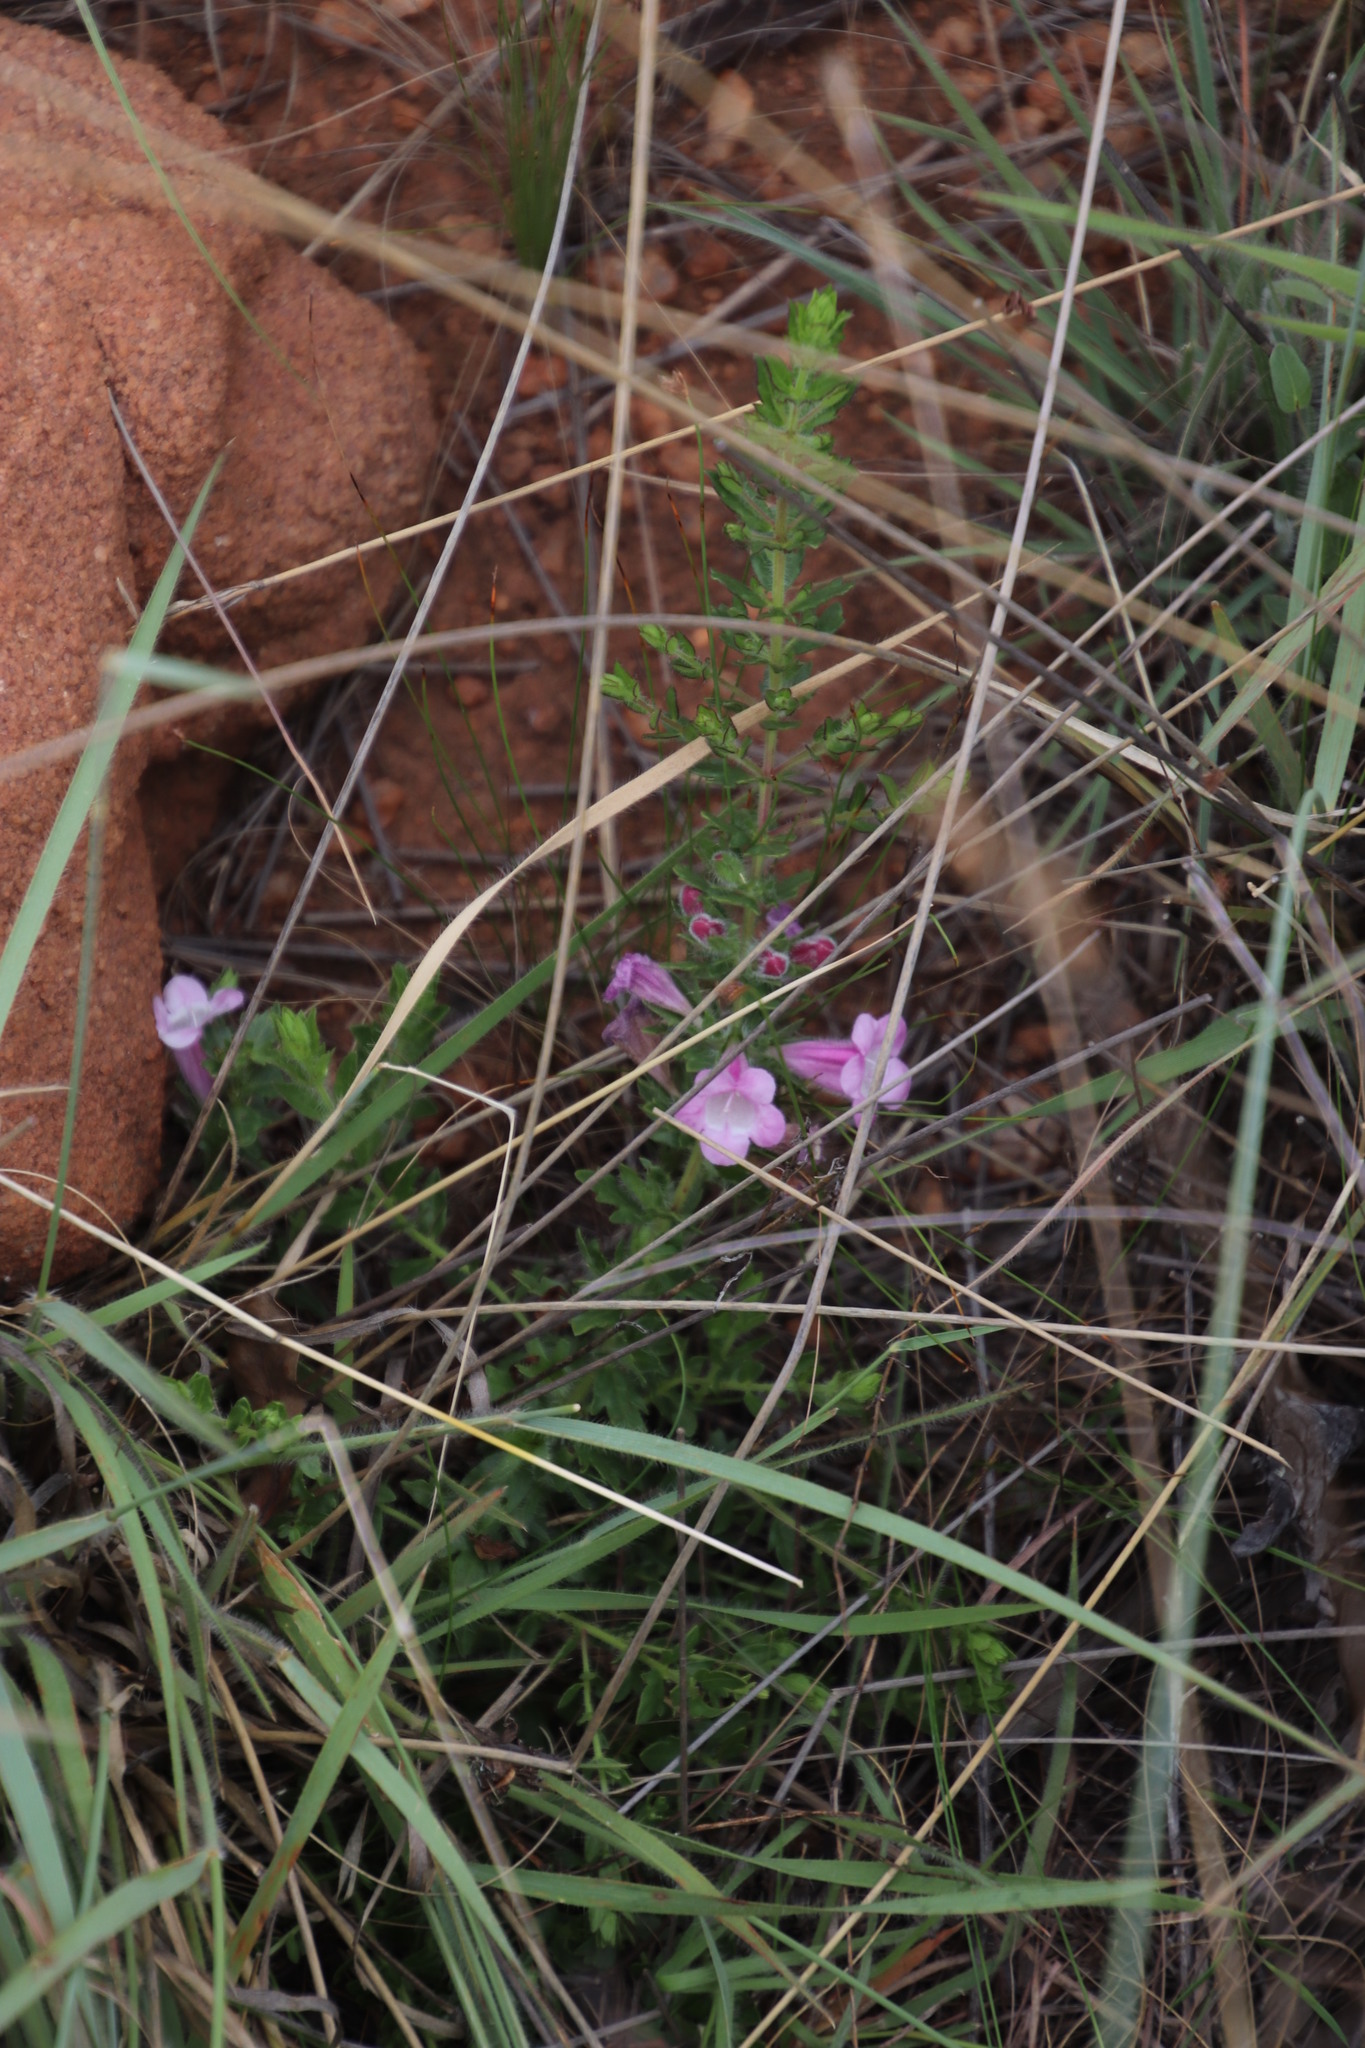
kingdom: Plantae
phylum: Tracheophyta
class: Magnoliopsida
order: Lamiales
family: Orobanchaceae
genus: Graderia
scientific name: Graderia subintegra
